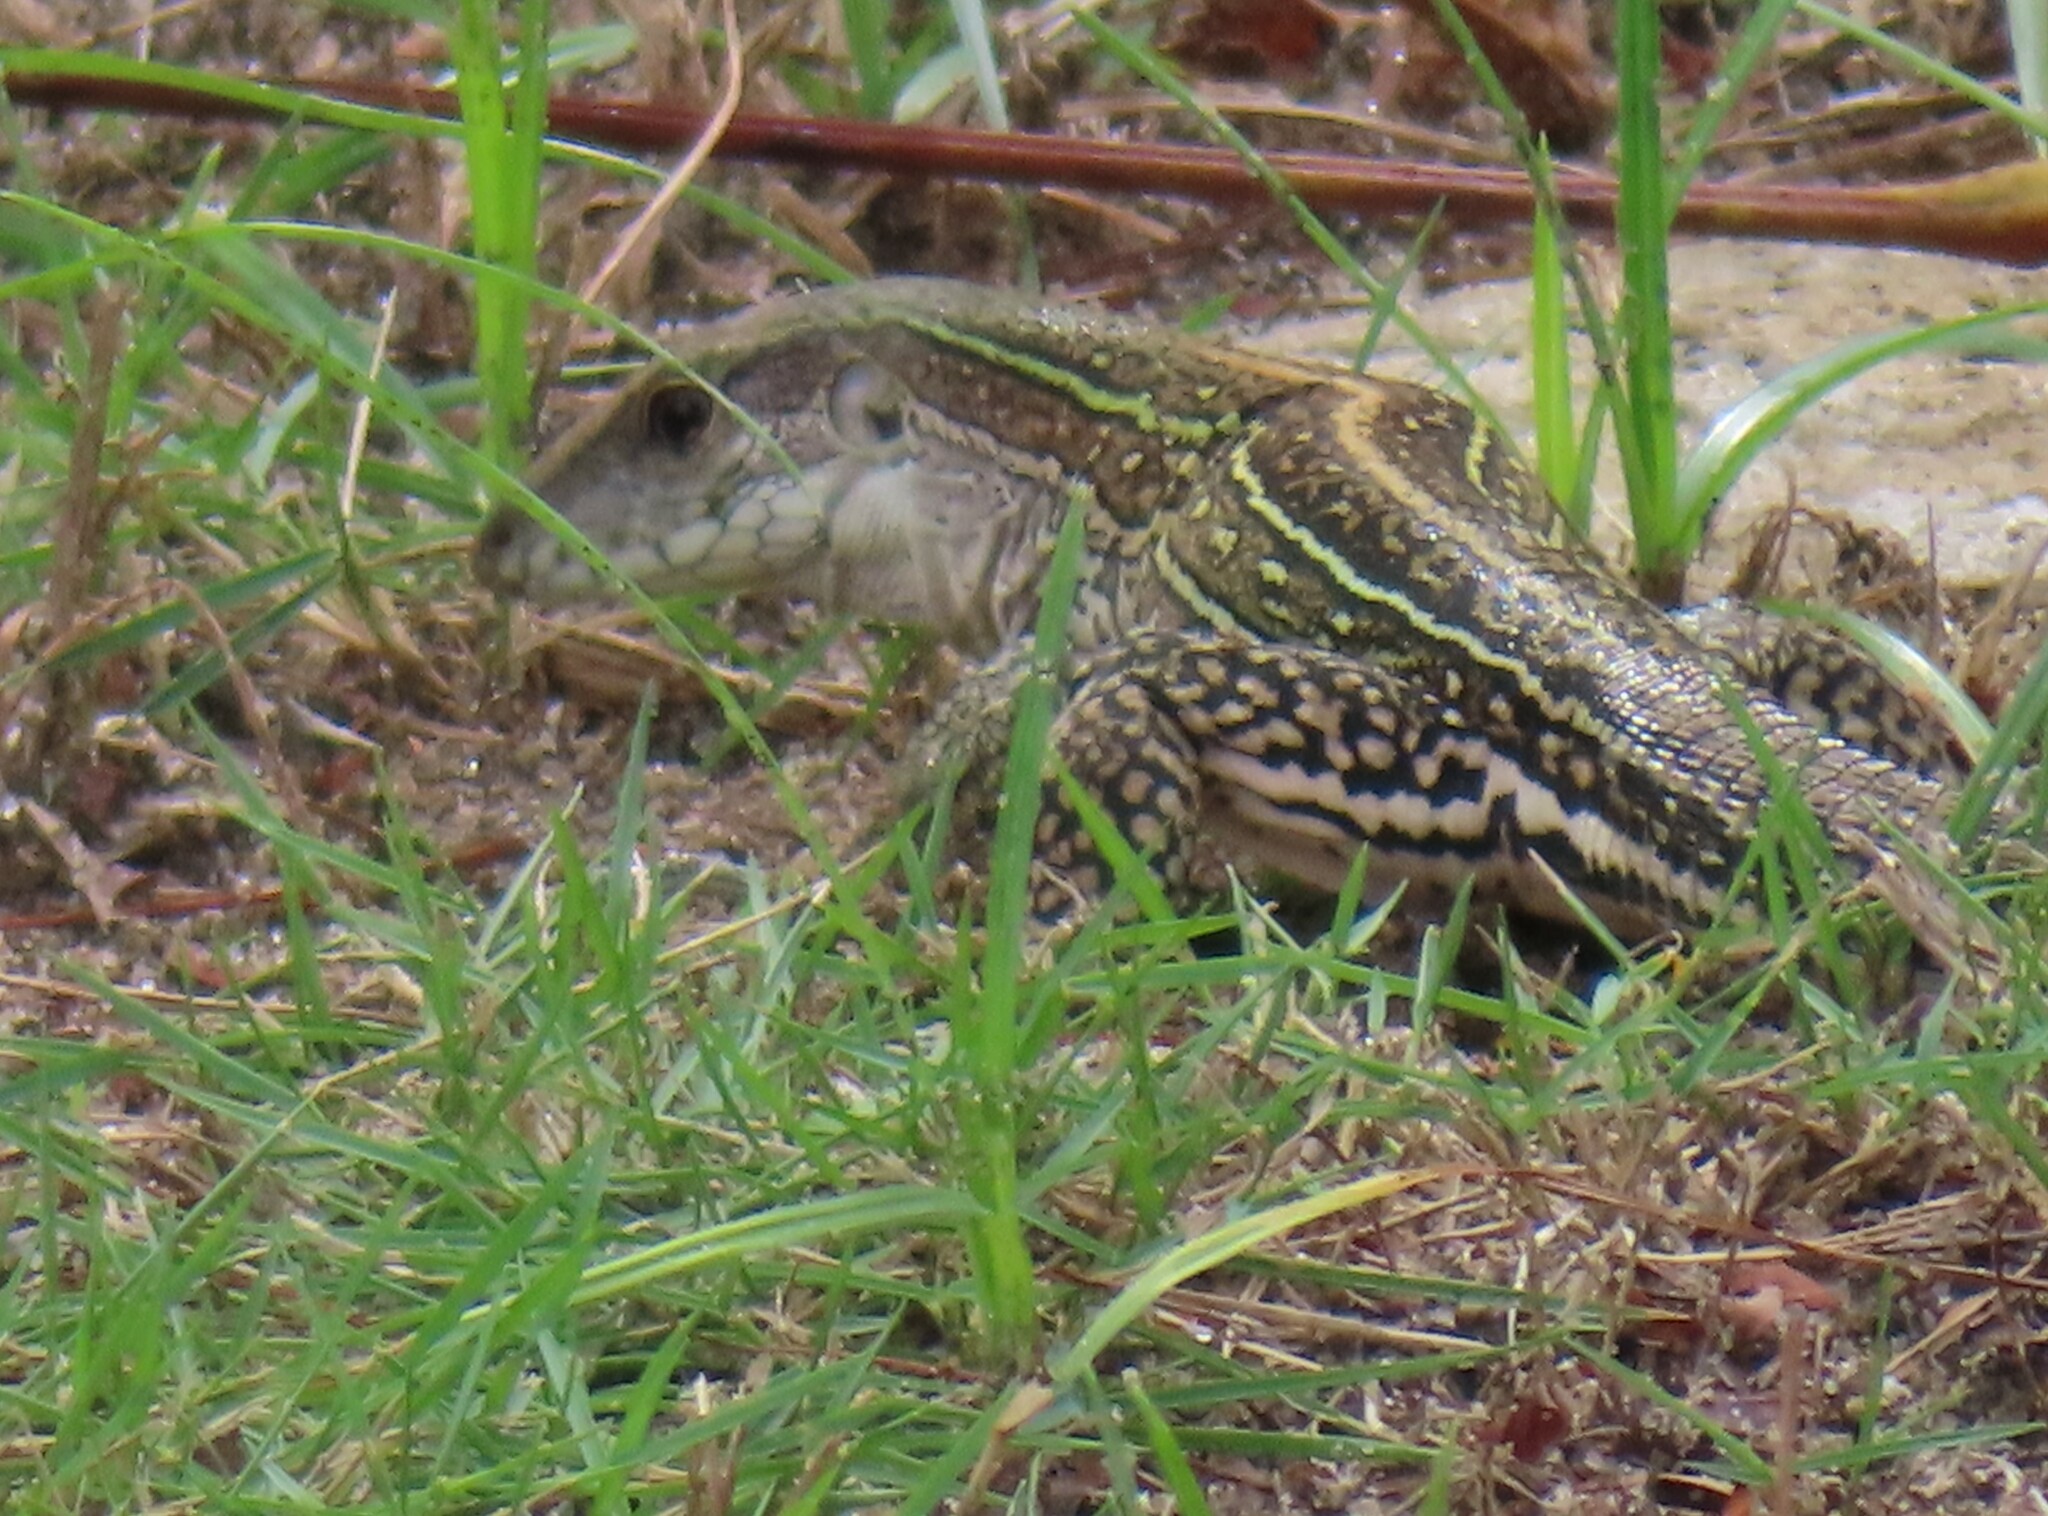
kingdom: Animalia
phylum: Chordata
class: Squamata
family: Teiidae
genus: Ameiva
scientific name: Ameiva praesignis
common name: Giant ameiva
